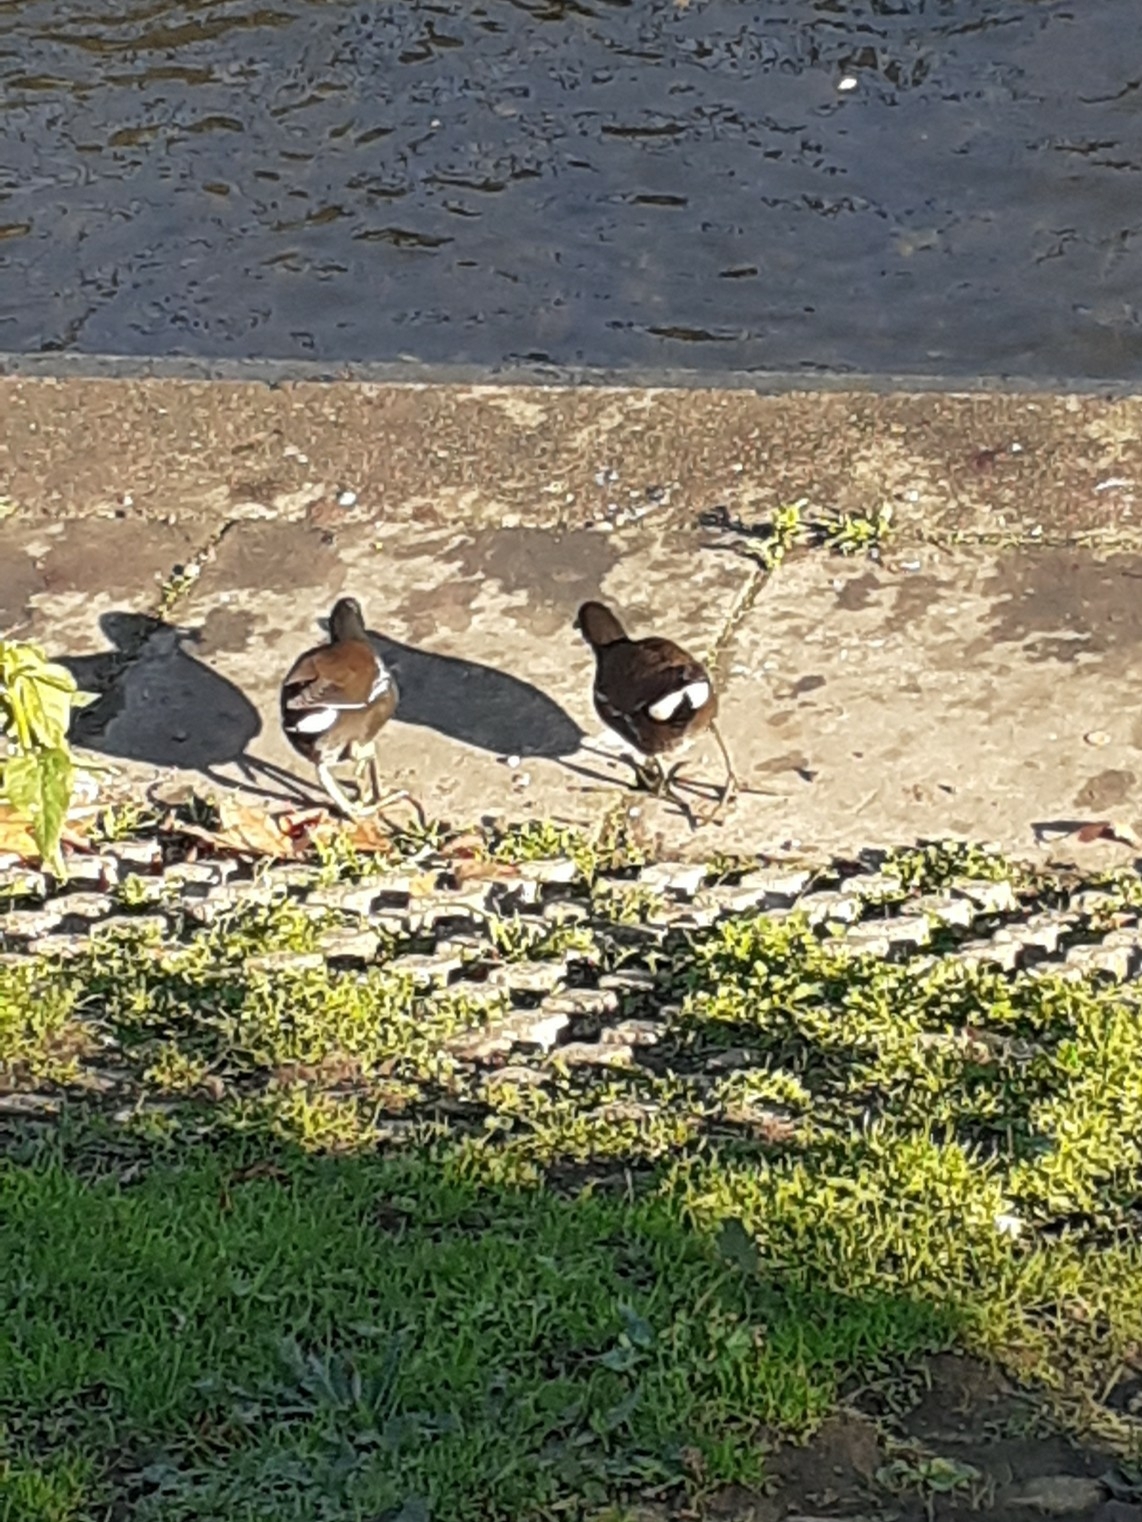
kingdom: Animalia
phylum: Chordata
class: Aves
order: Gruiformes
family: Rallidae
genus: Gallinula
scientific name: Gallinula chloropus
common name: Common moorhen
